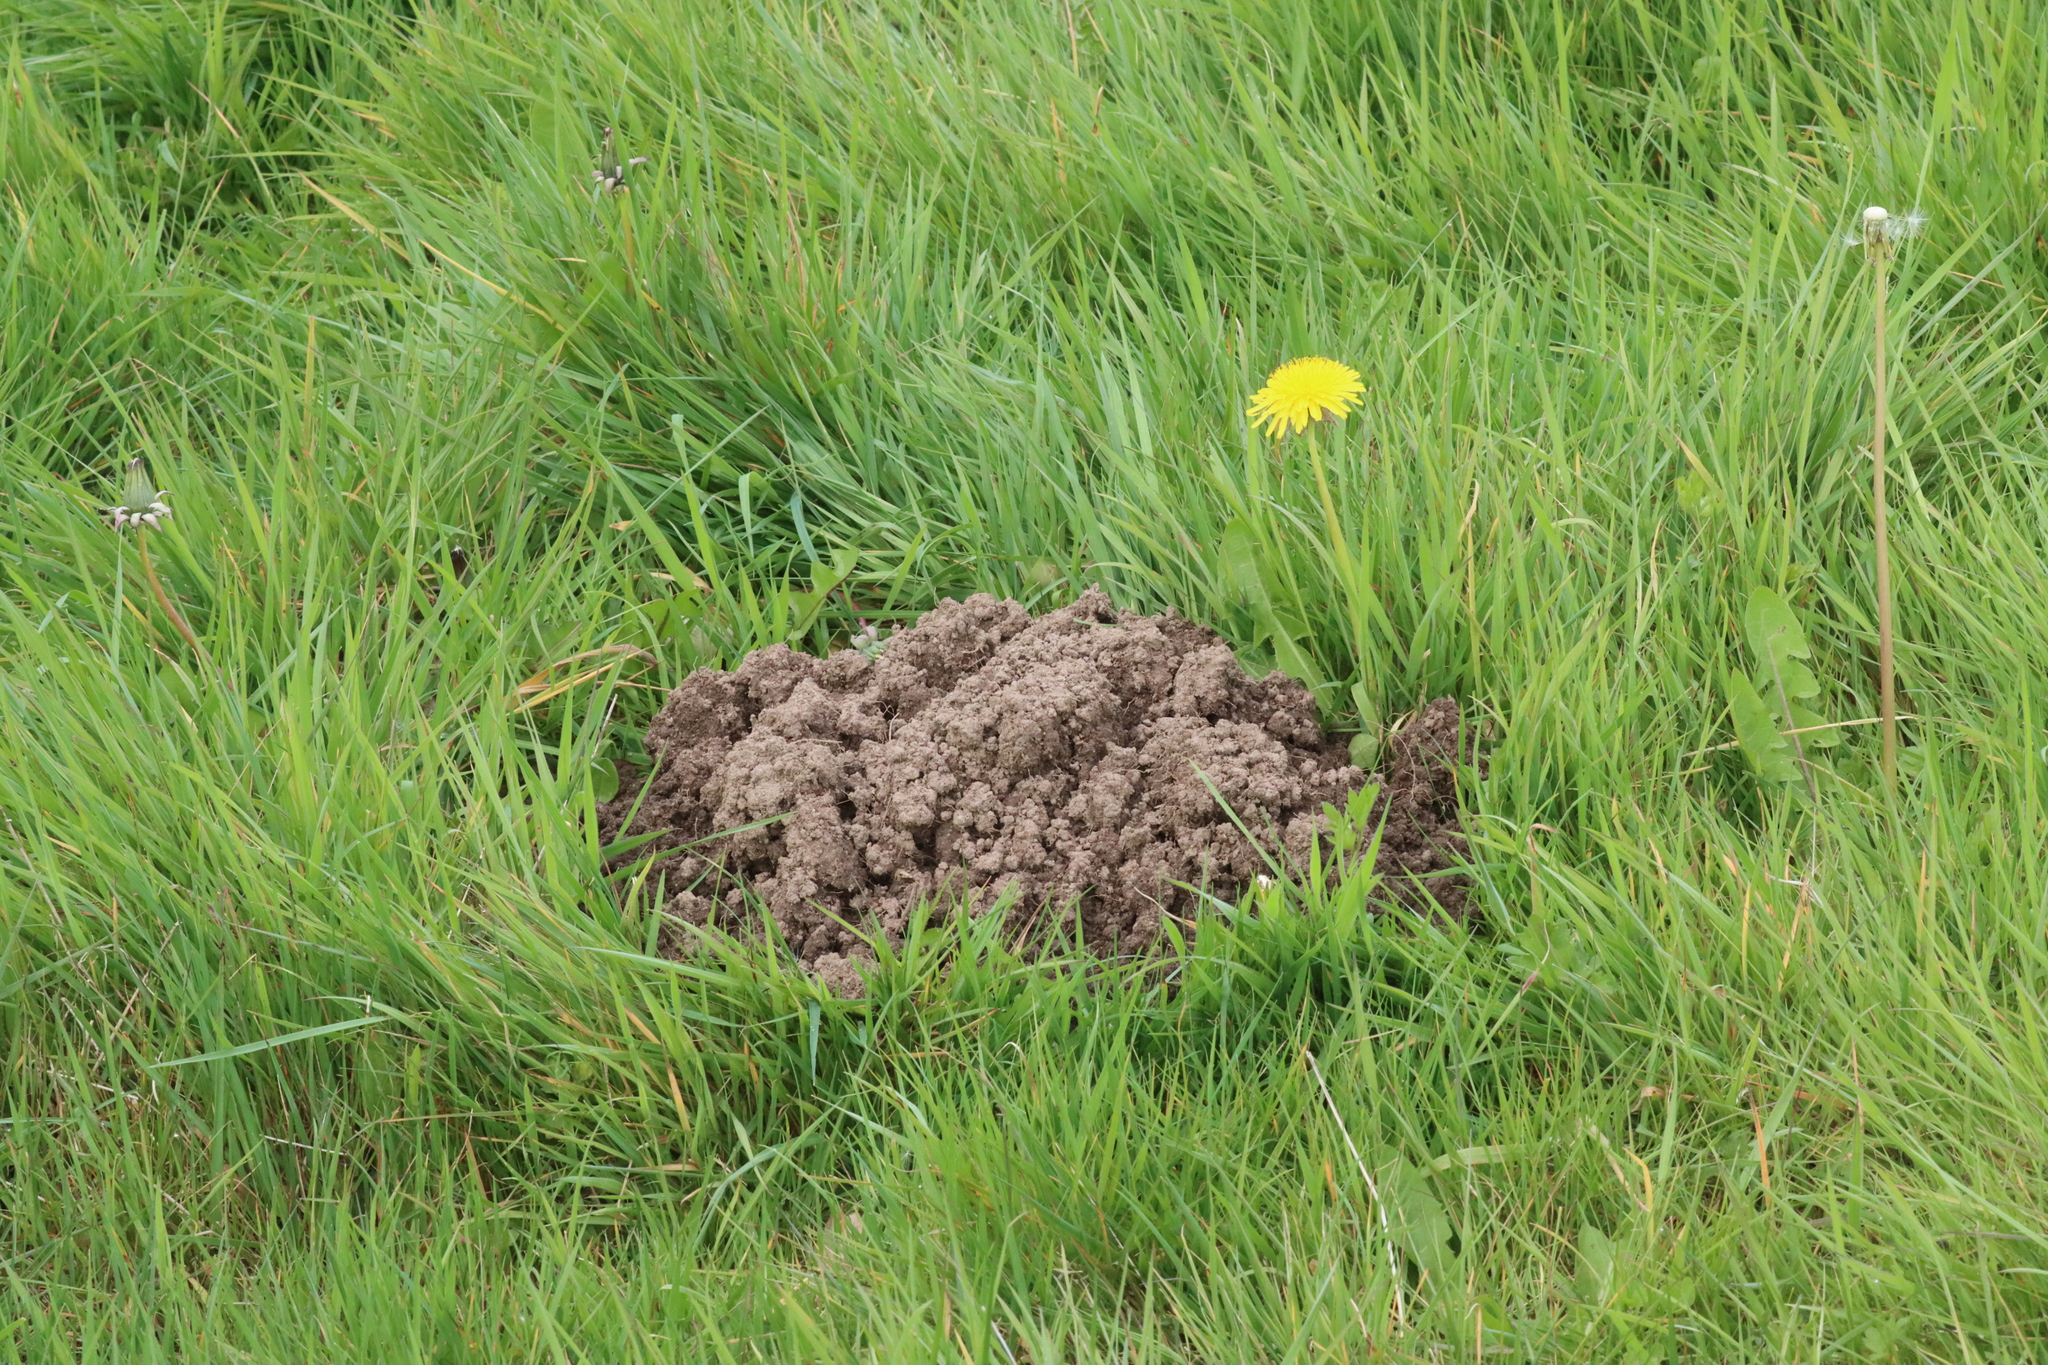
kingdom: Animalia
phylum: Chordata
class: Mammalia
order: Soricomorpha
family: Talpidae
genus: Talpa
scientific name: Talpa europaea
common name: European mole
